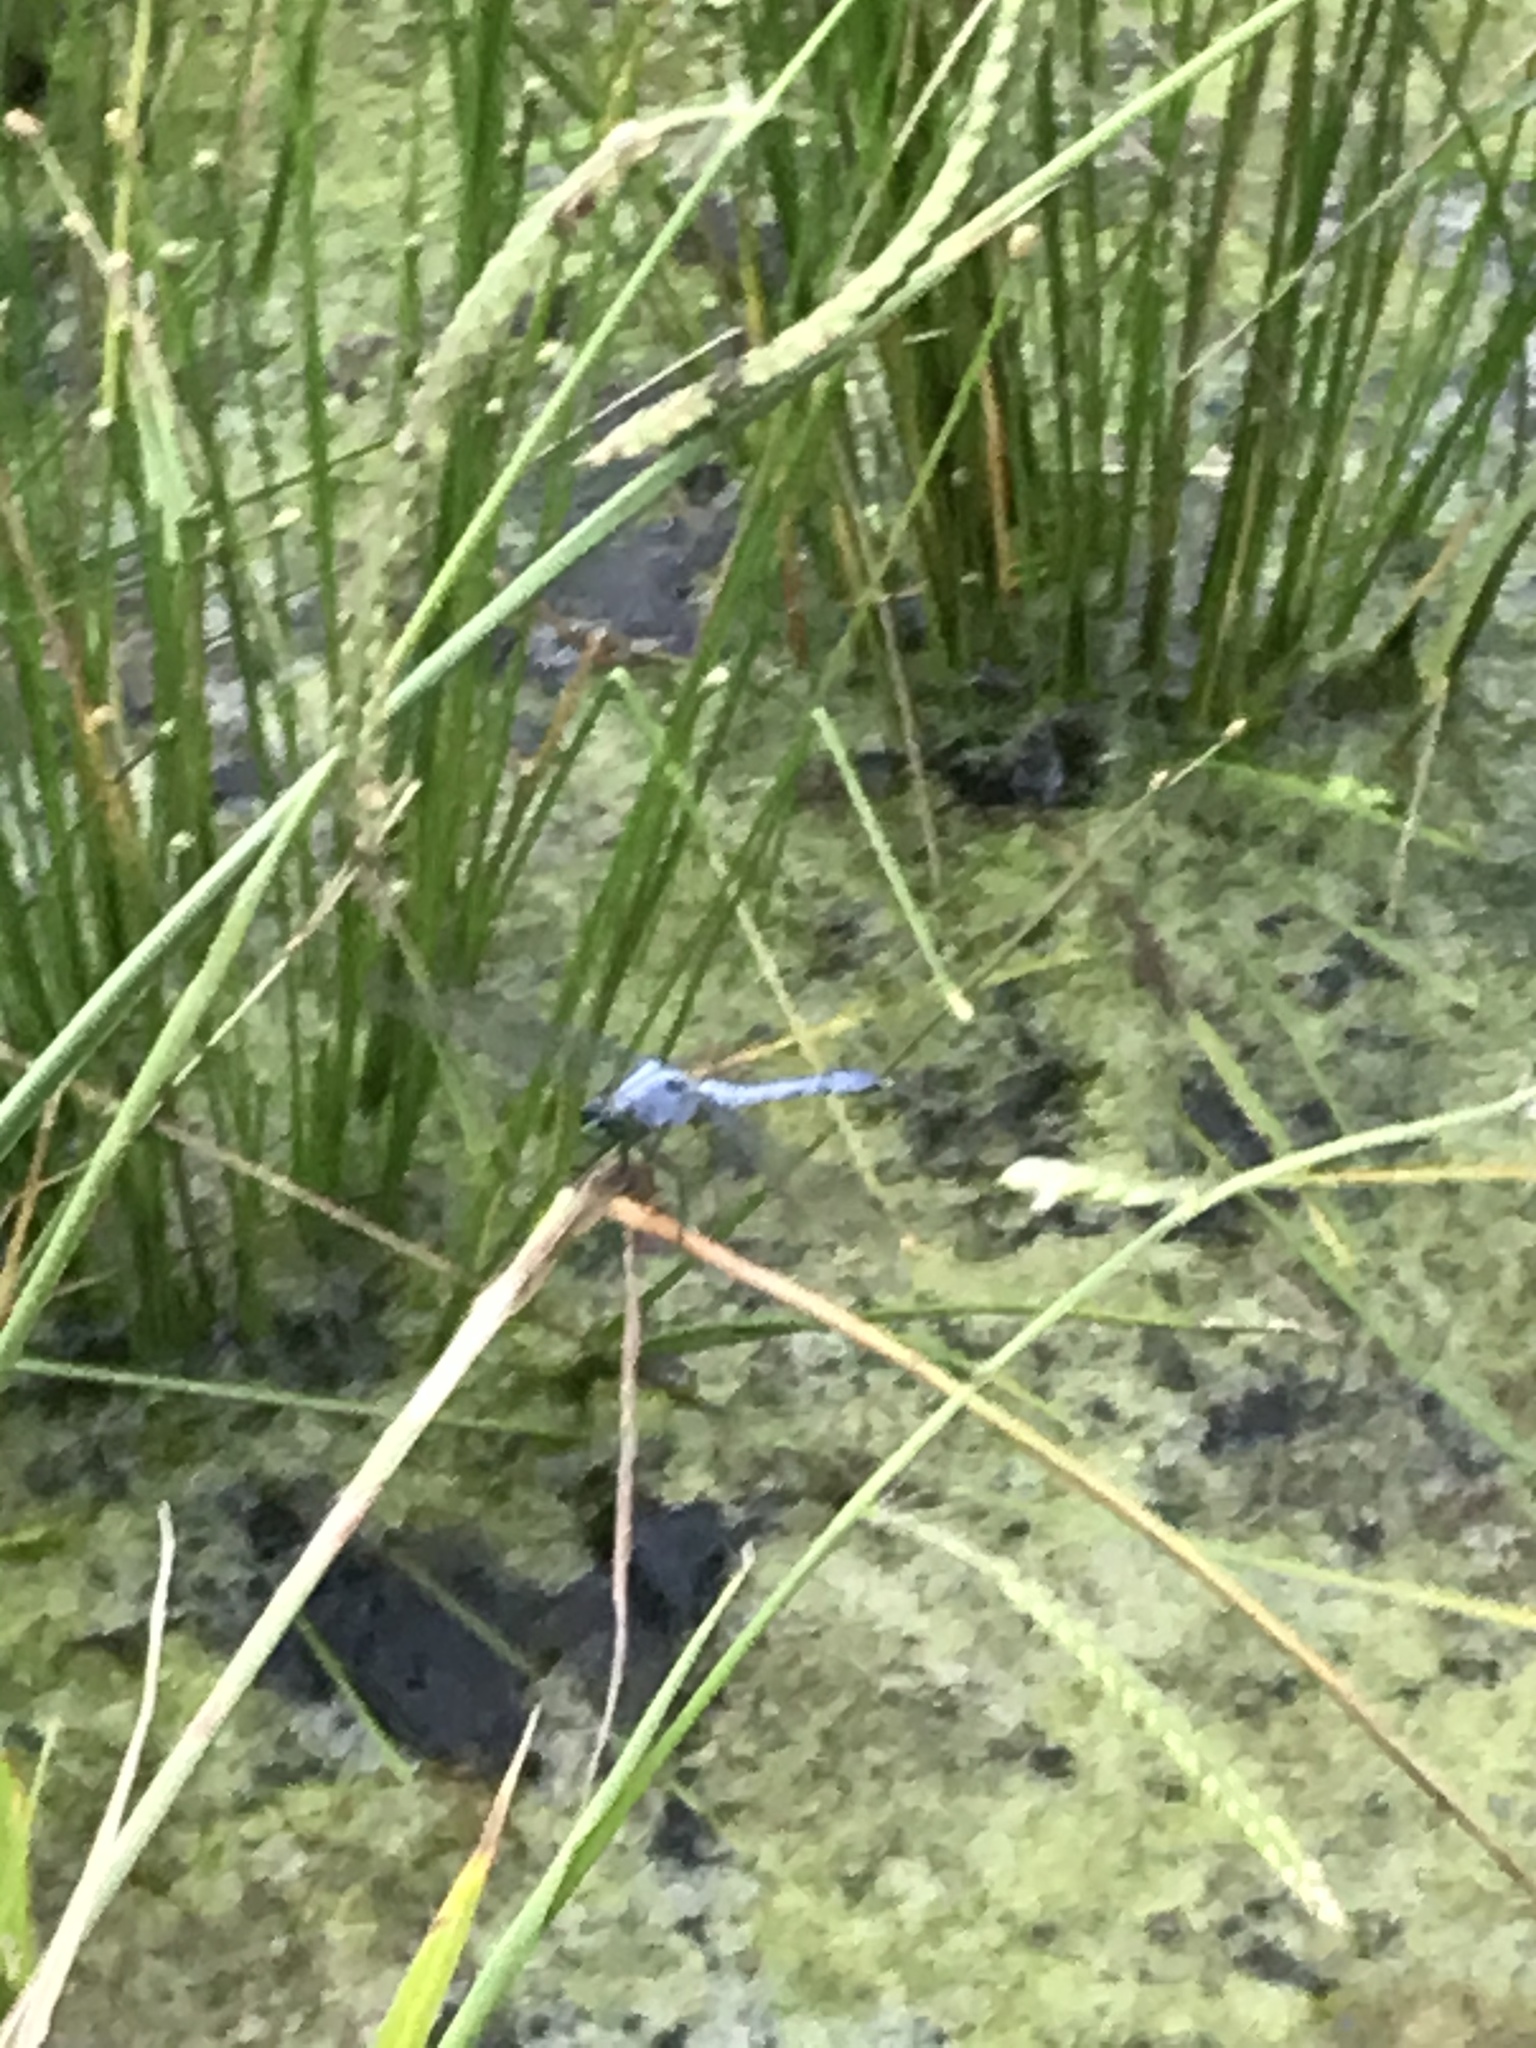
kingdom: Animalia
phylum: Arthropoda
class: Insecta
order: Odonata
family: Libellulidae
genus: Erythemis
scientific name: Erythemis simplicicollis
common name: Eastern pondhawk
